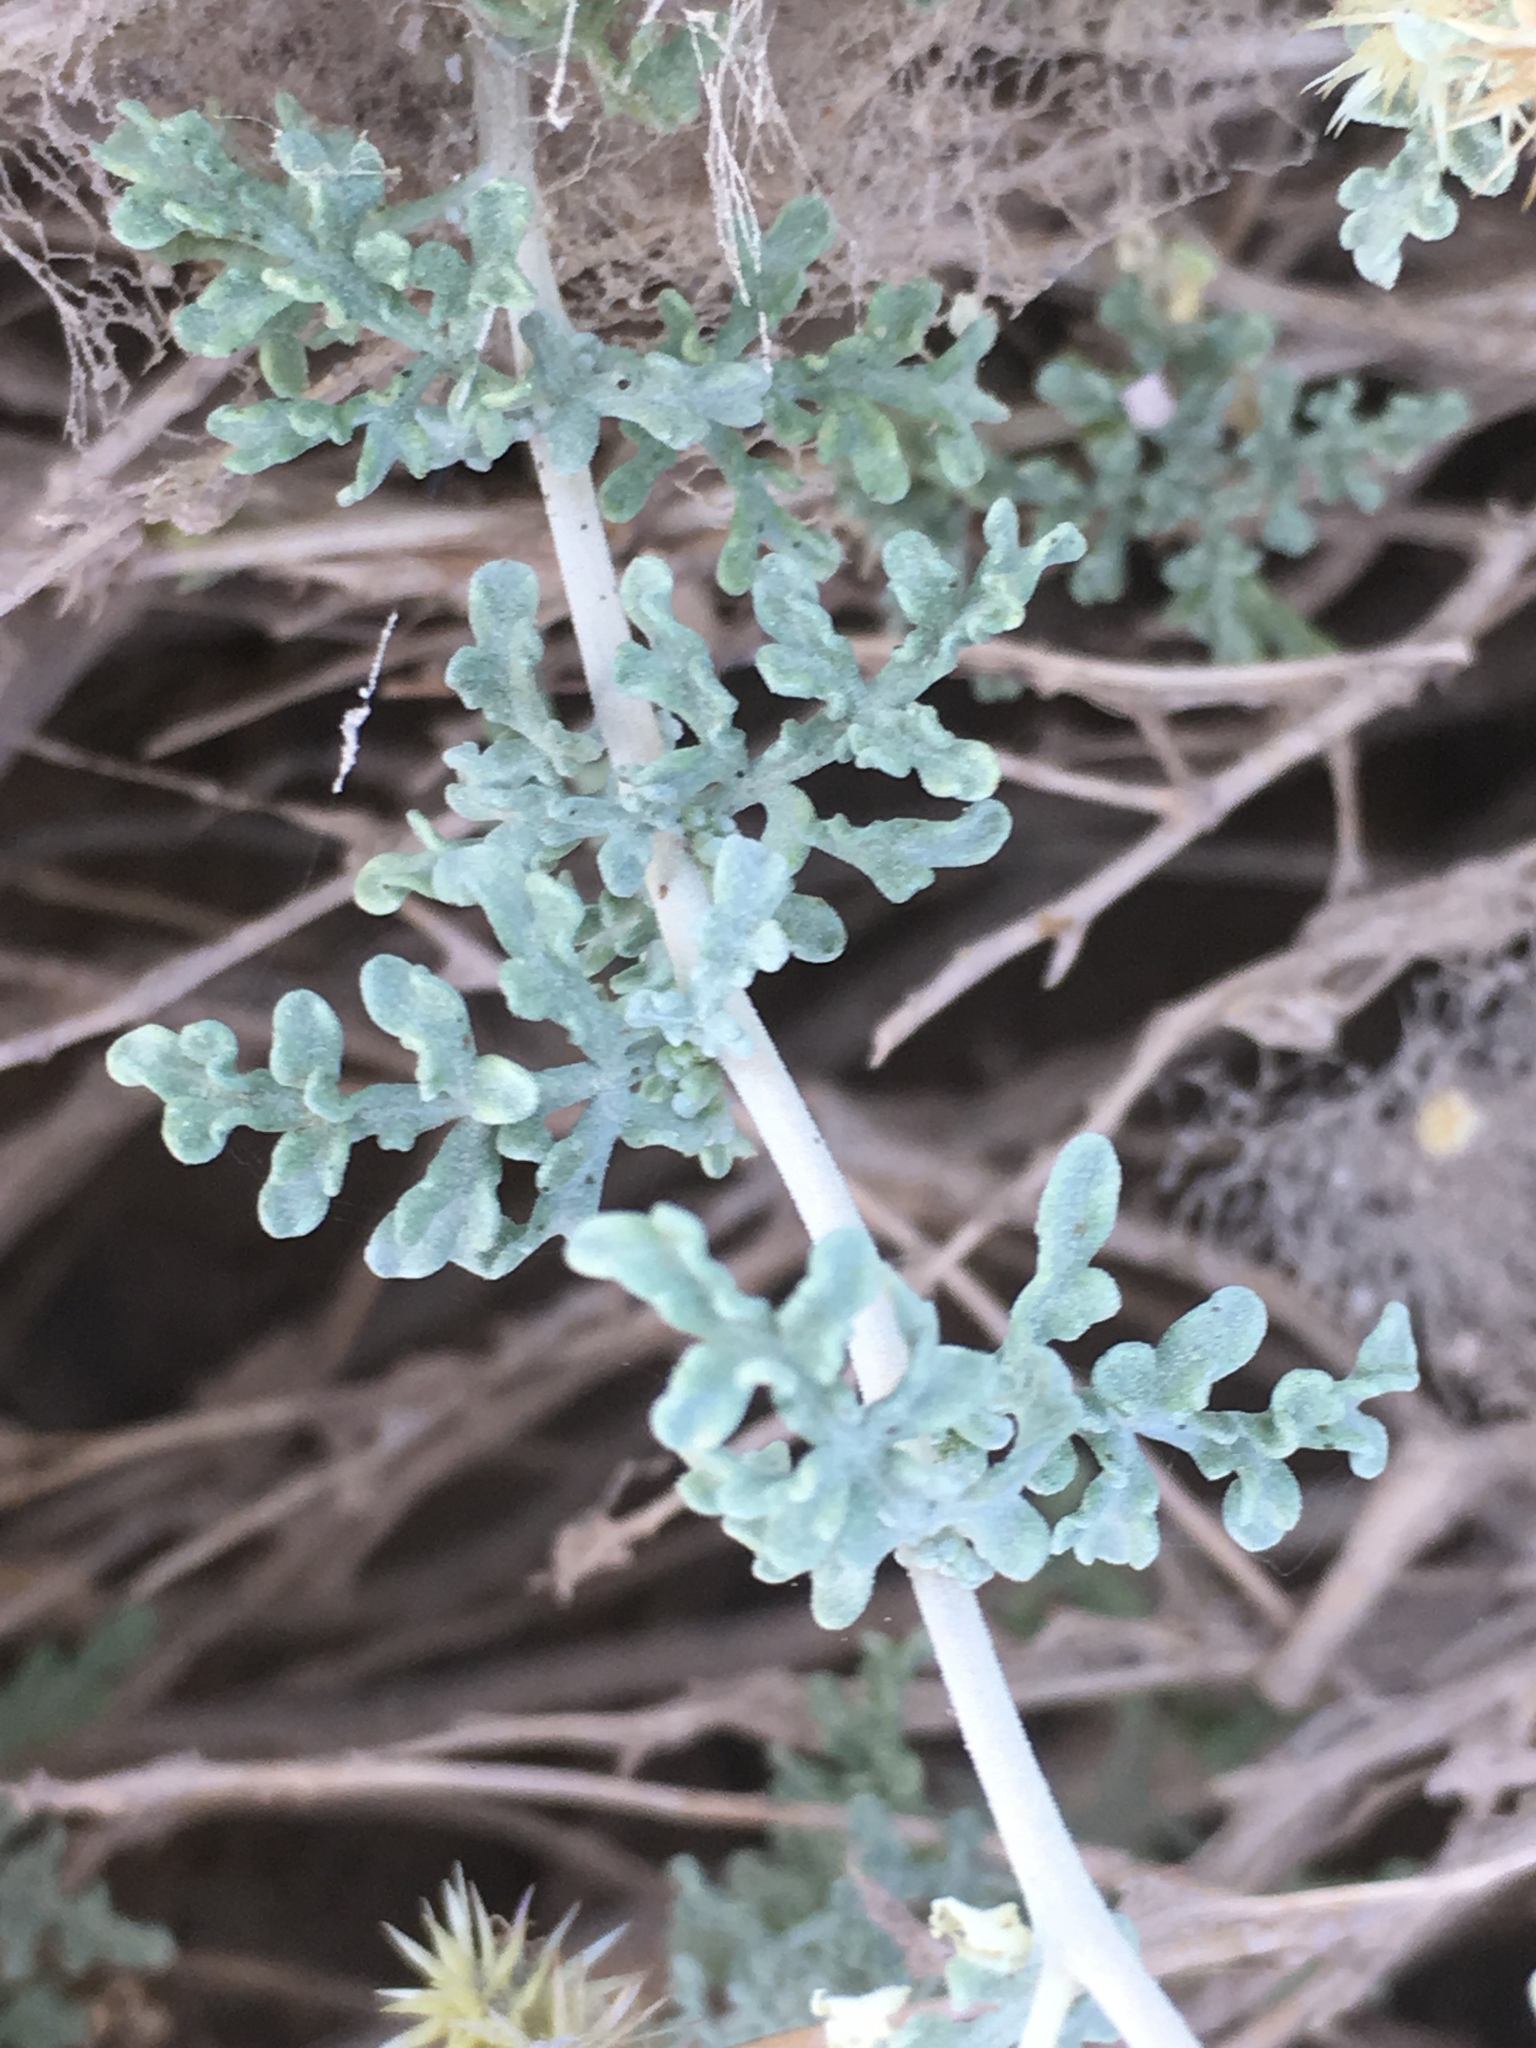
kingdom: Plantae
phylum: Tracheophyta
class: Magnoliopsida
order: Asterales
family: Asteraceae
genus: Ambrosia
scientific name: Ambrosia dumosa
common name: Bur-sage
